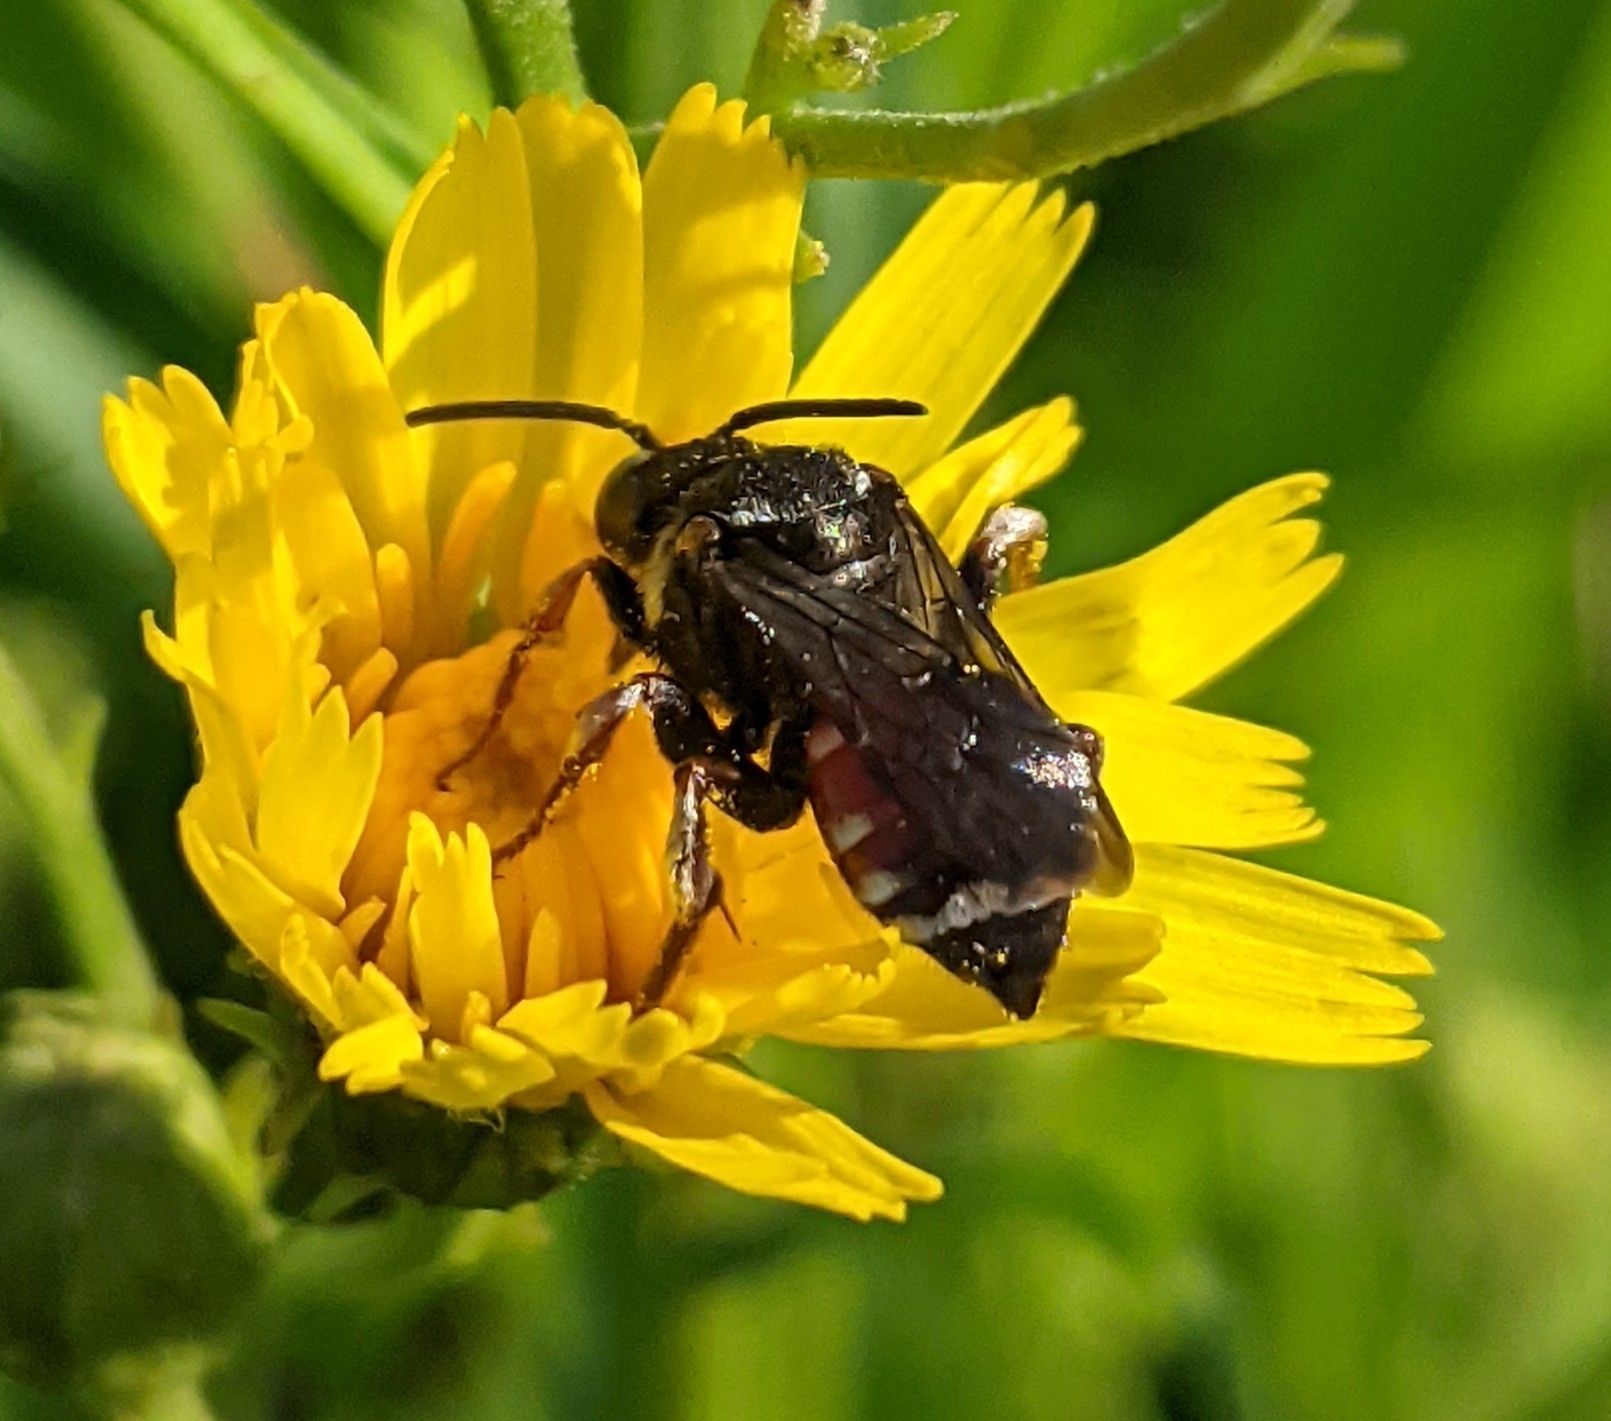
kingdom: Animalia
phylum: Arthropoda
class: Insecta
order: Hymenoptera
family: Apidae
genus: Epeoloides
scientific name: Epeoloides coecutiens
